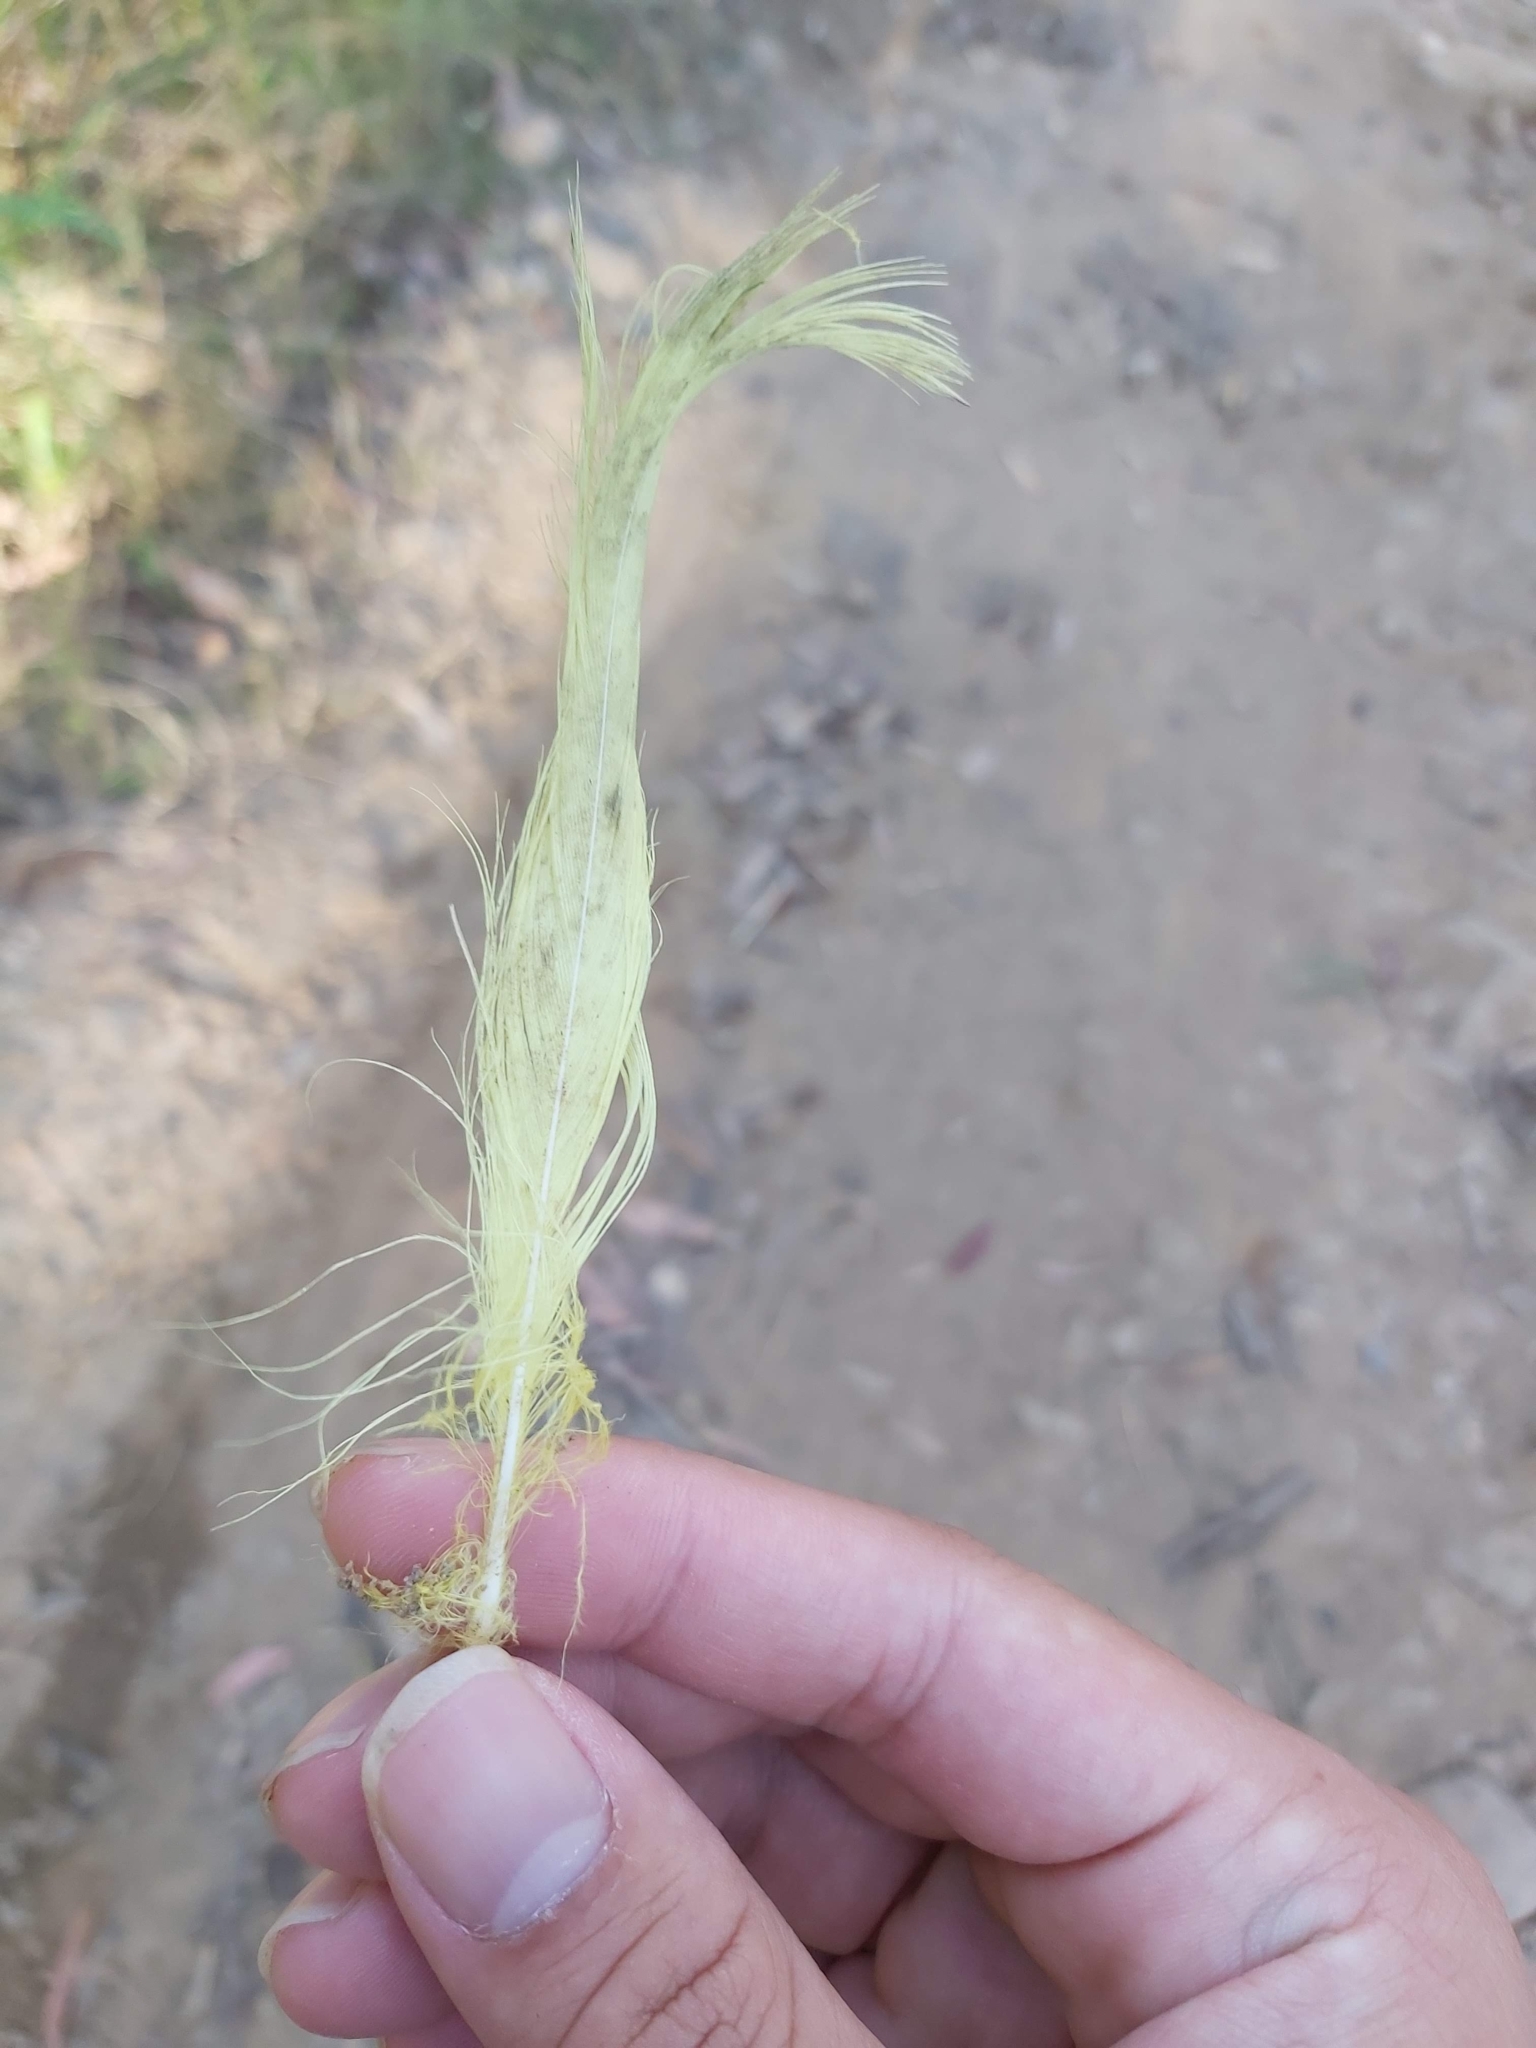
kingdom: Animalia
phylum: Chordata
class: Aves
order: Psittaciformes
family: Psittacidae
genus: Cacatua
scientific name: Cacatua galerita
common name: Sulphur-crested cockatoo
